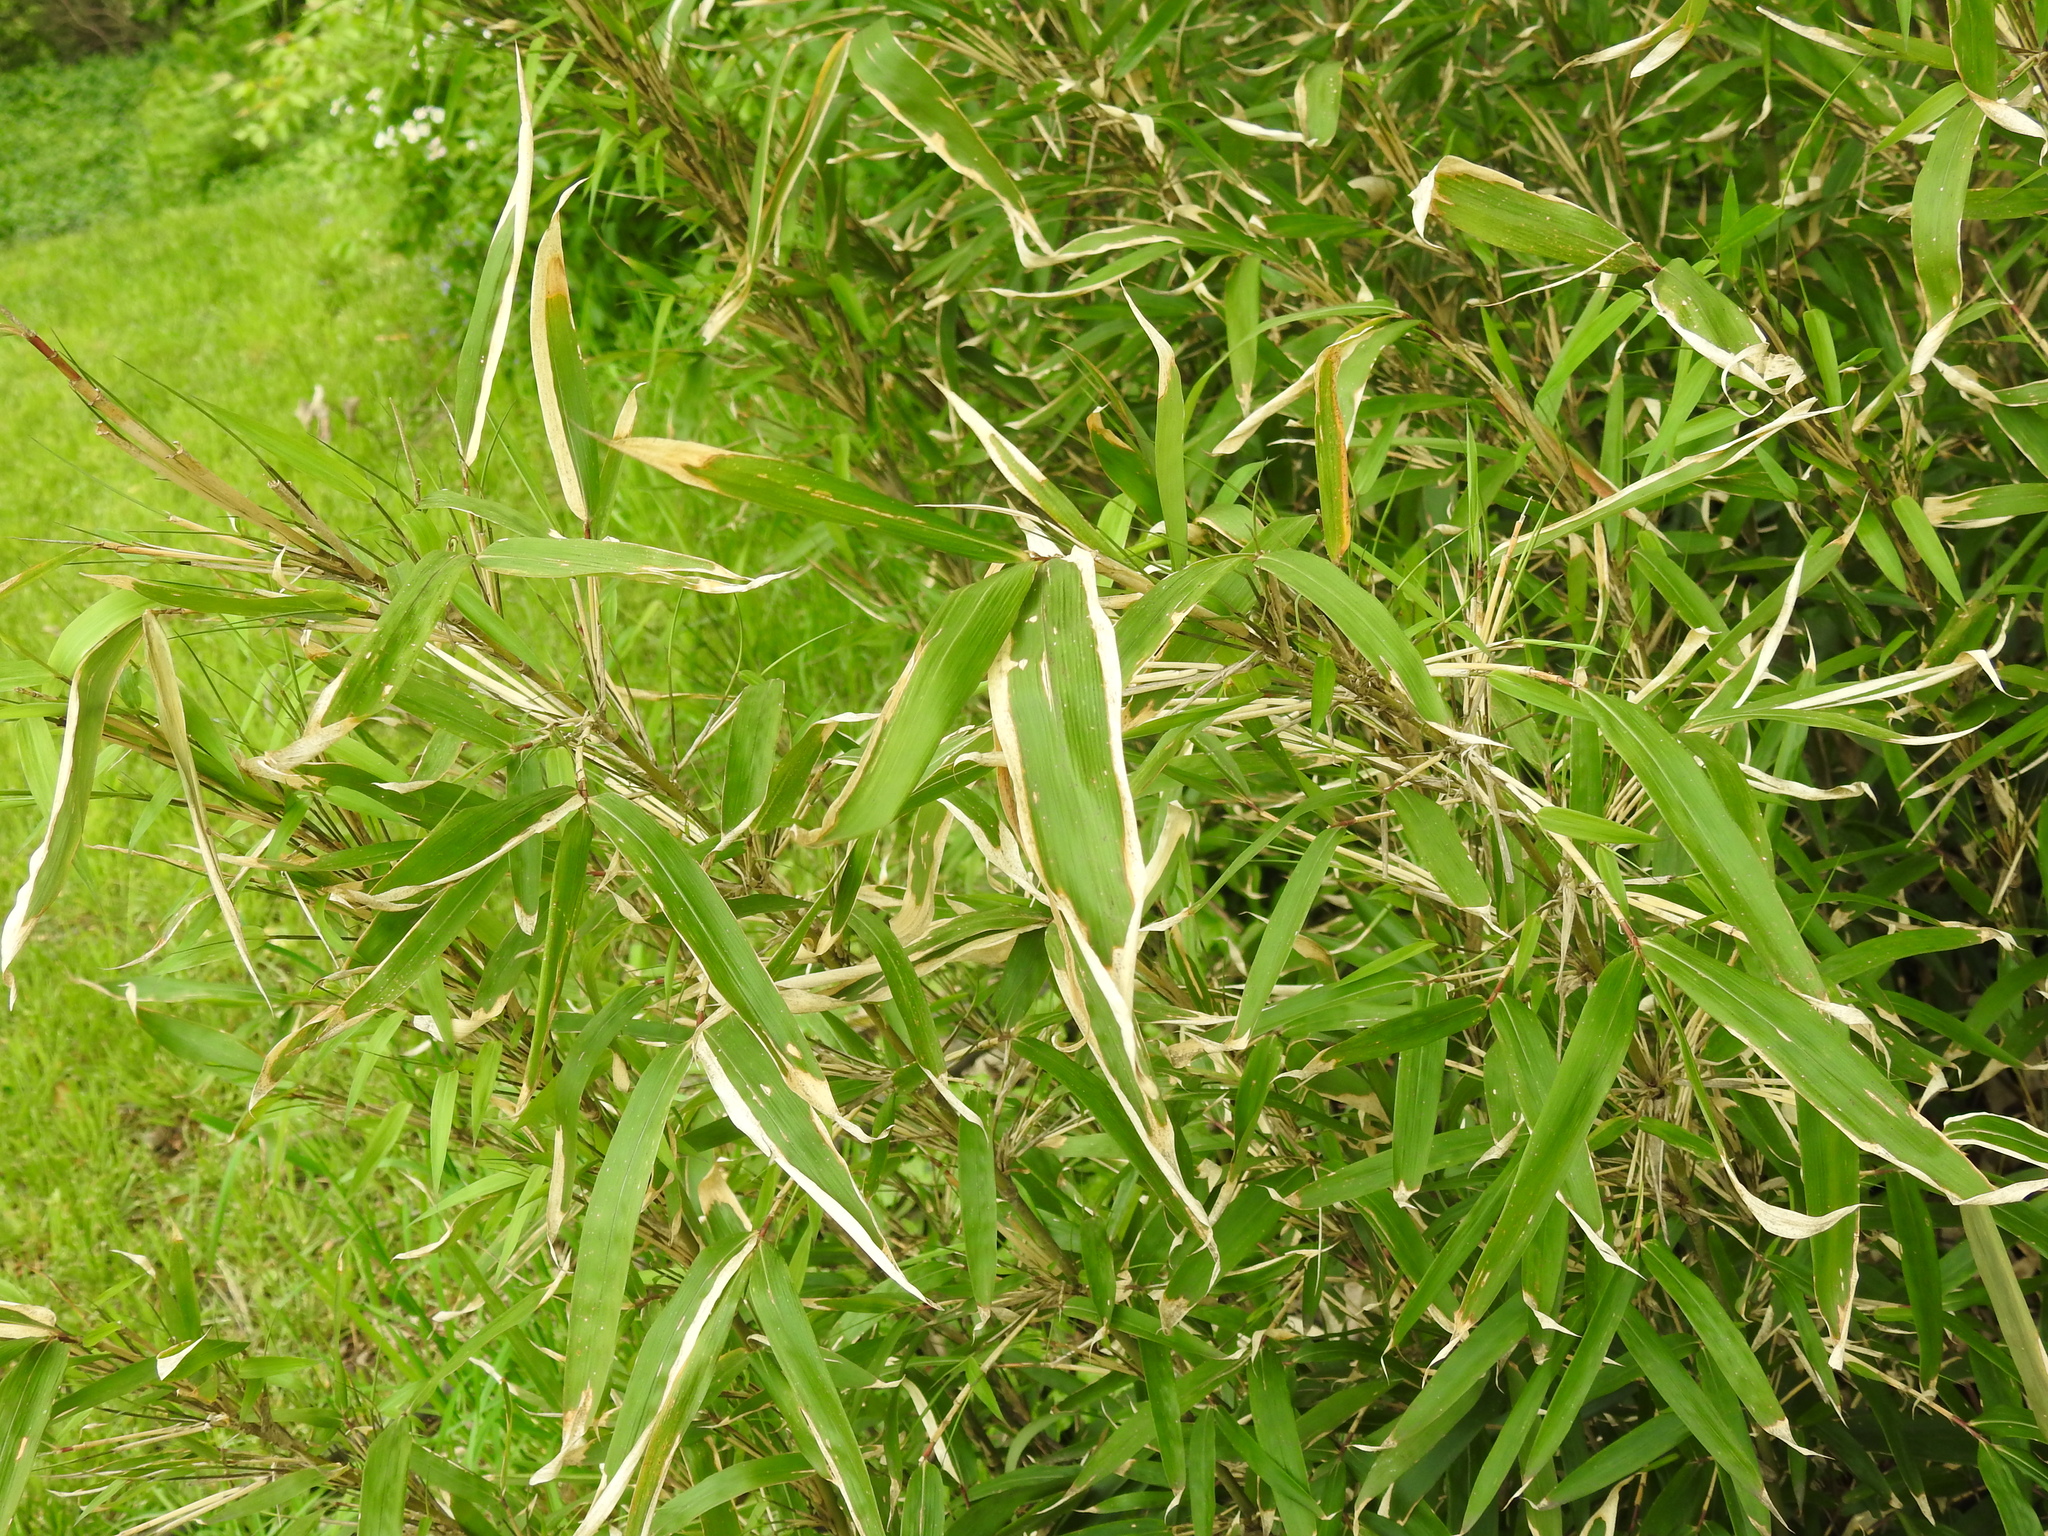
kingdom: Plantae
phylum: Tracheophyta
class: Liliopsida
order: Poales
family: Poaceae
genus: Arundinaria
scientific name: Arundinaria gigantea
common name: Giant cane
